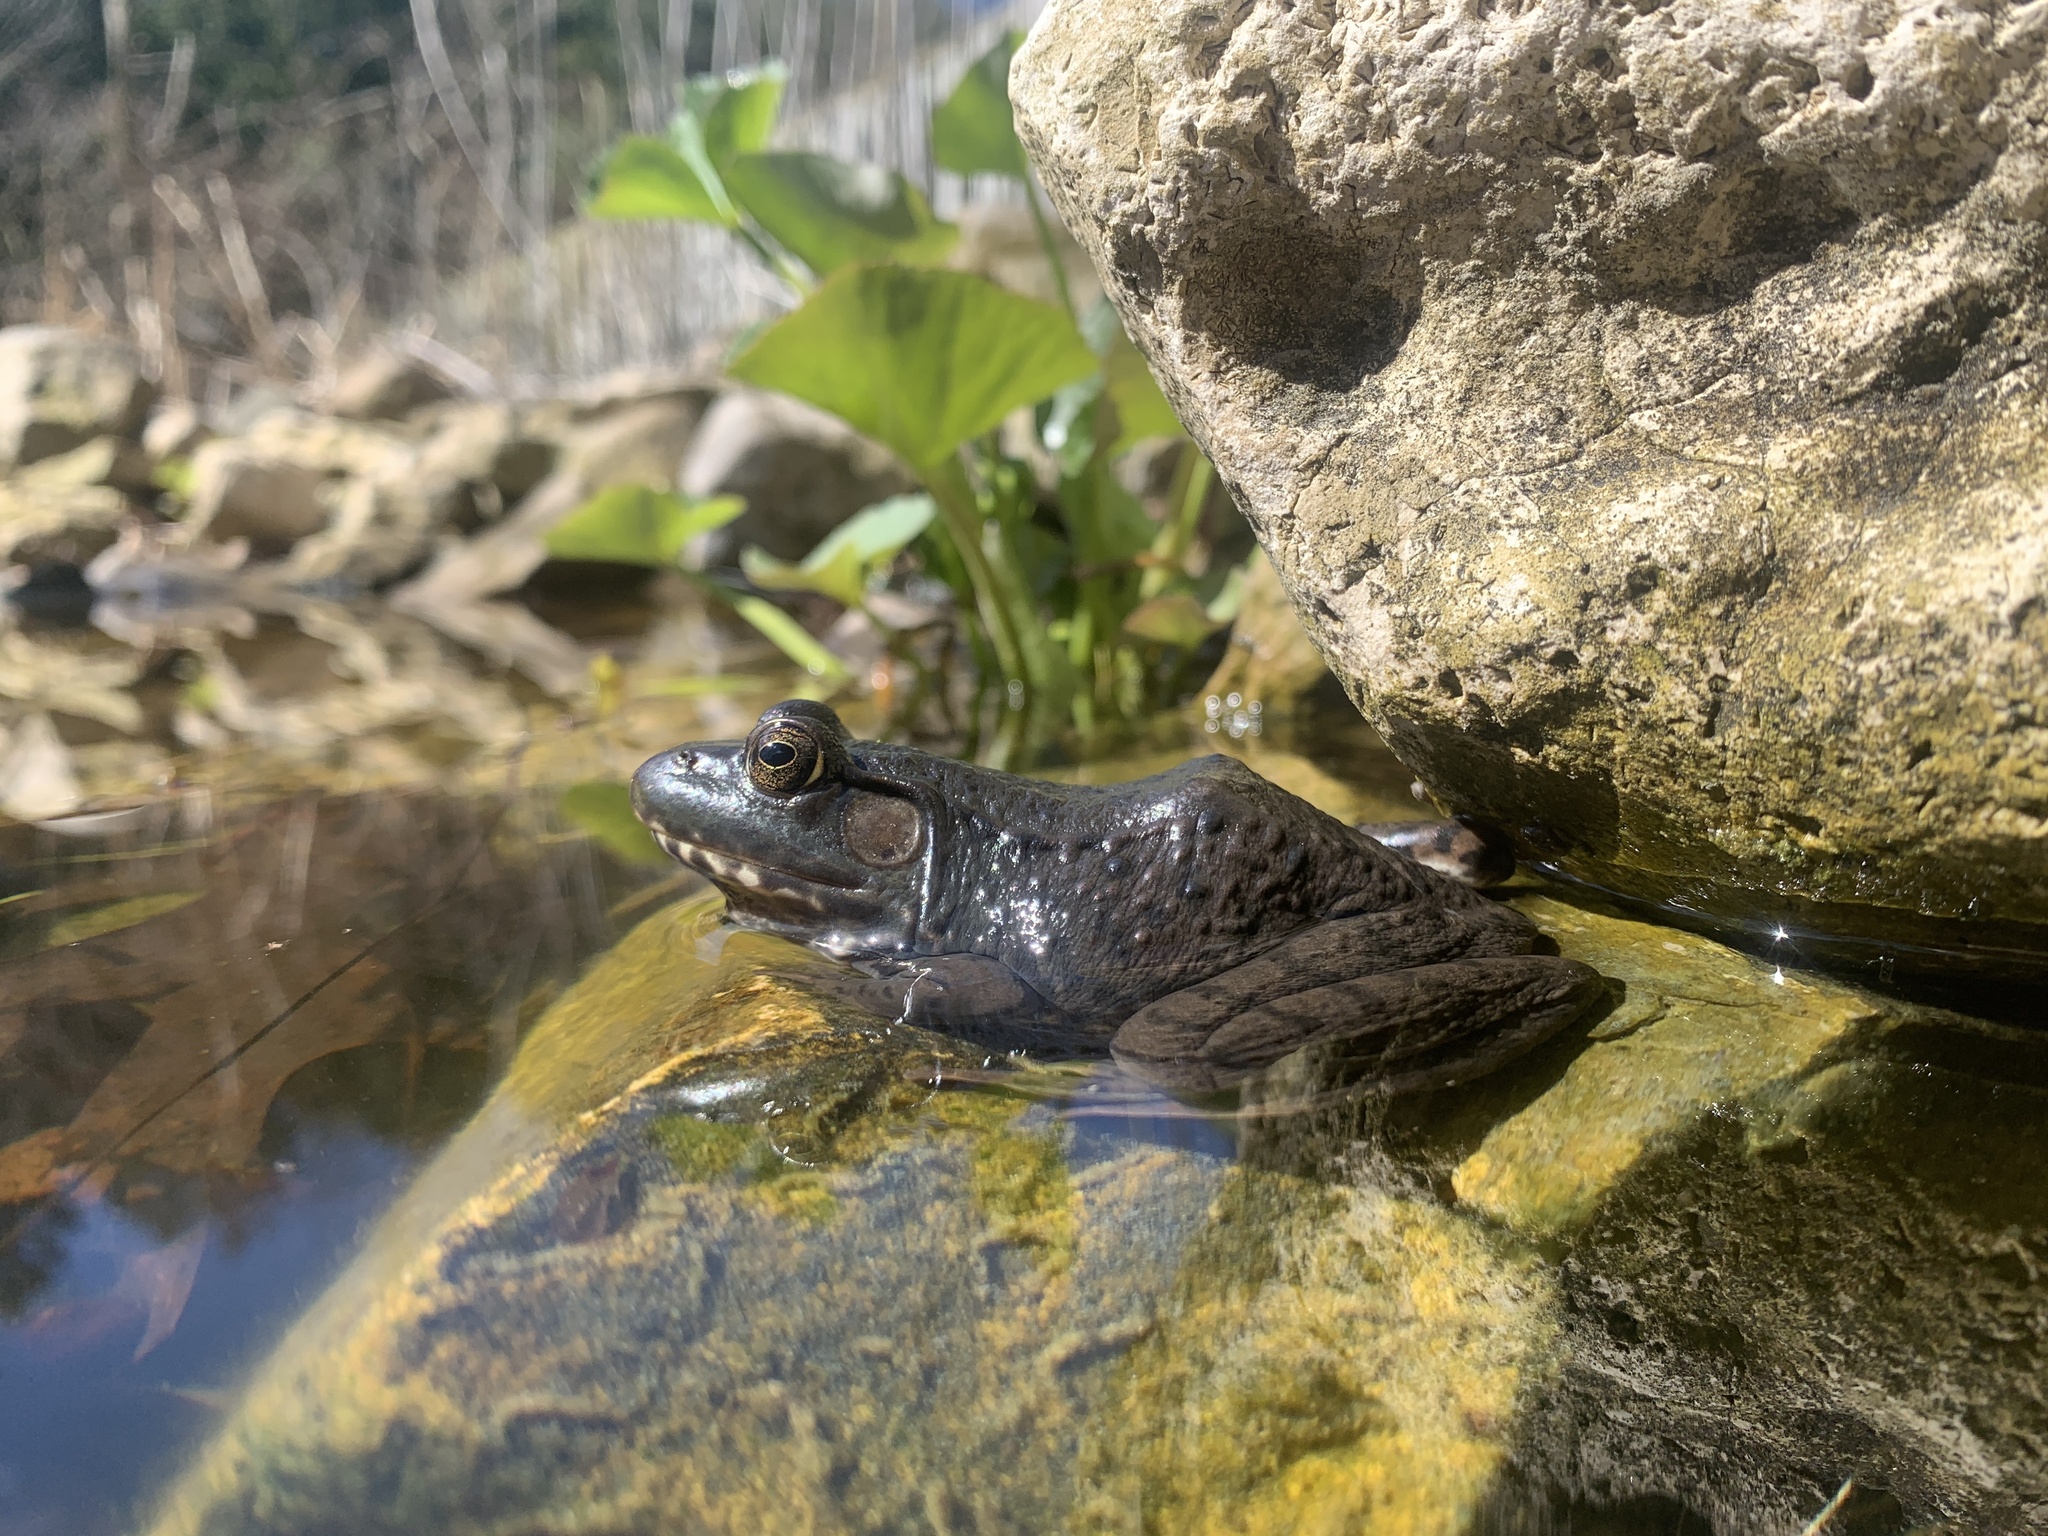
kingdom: Animalia
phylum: Chordata
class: Amphibia
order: Anura
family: Ranidae
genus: Lithobates
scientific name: Lithobates clamitans
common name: Green frog
